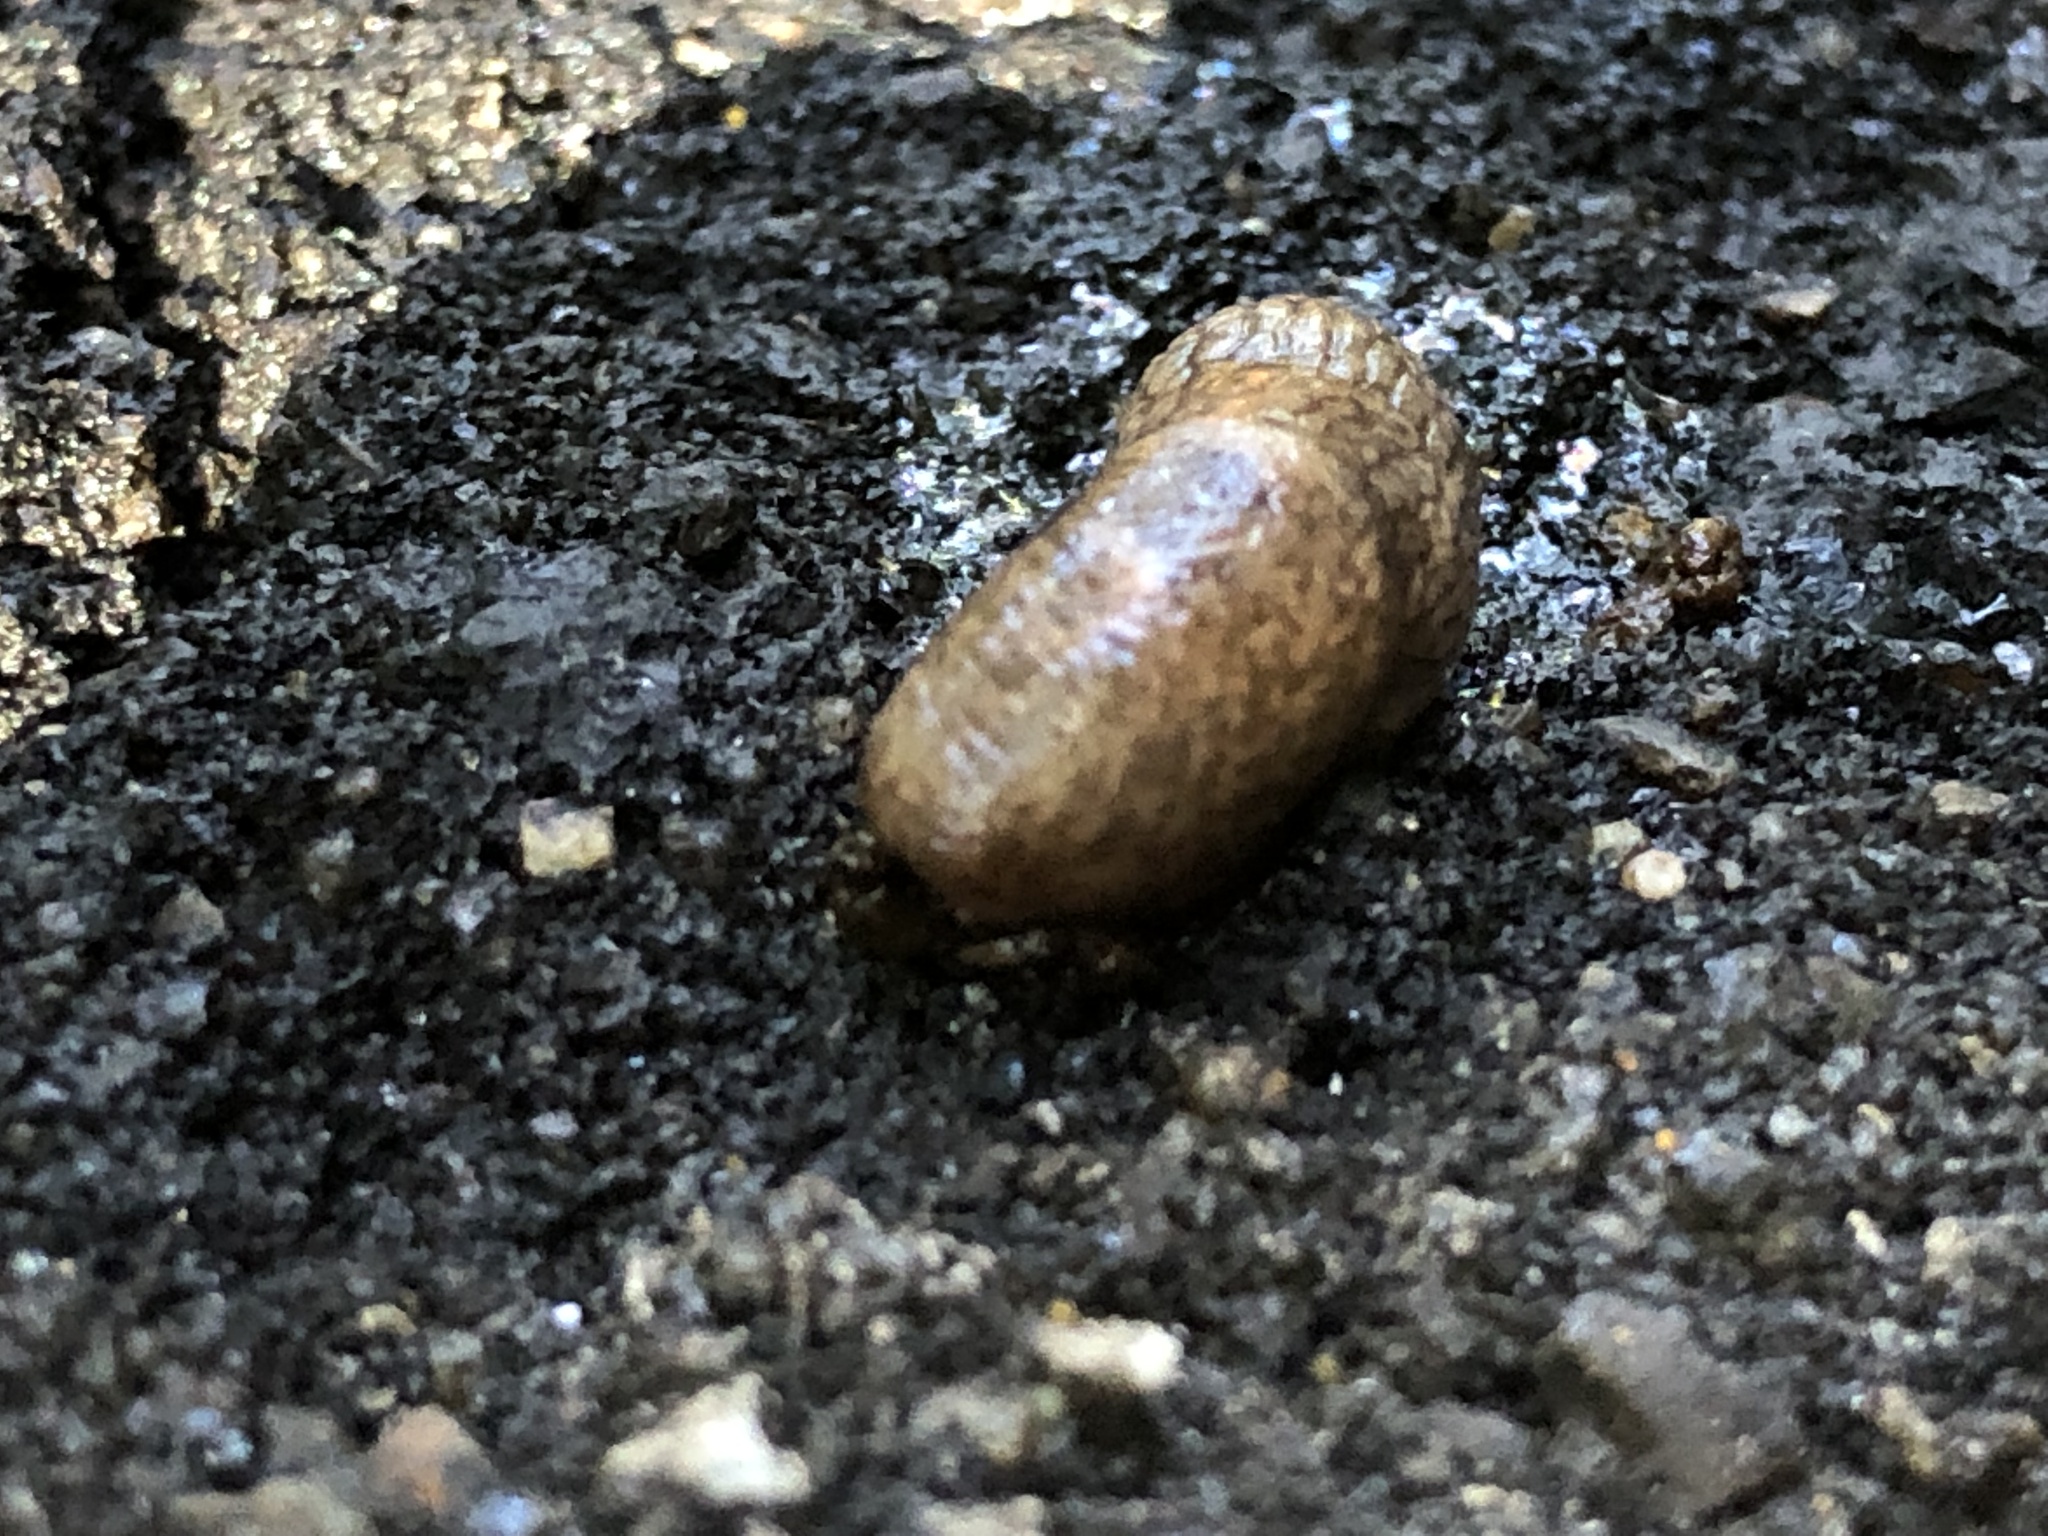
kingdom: Animalia
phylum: Mollusca
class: Gastropoda
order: Stylommatophora
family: Agriolimacidae
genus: Deroceras
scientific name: Deroceras reticulatum
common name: Gray field slug
